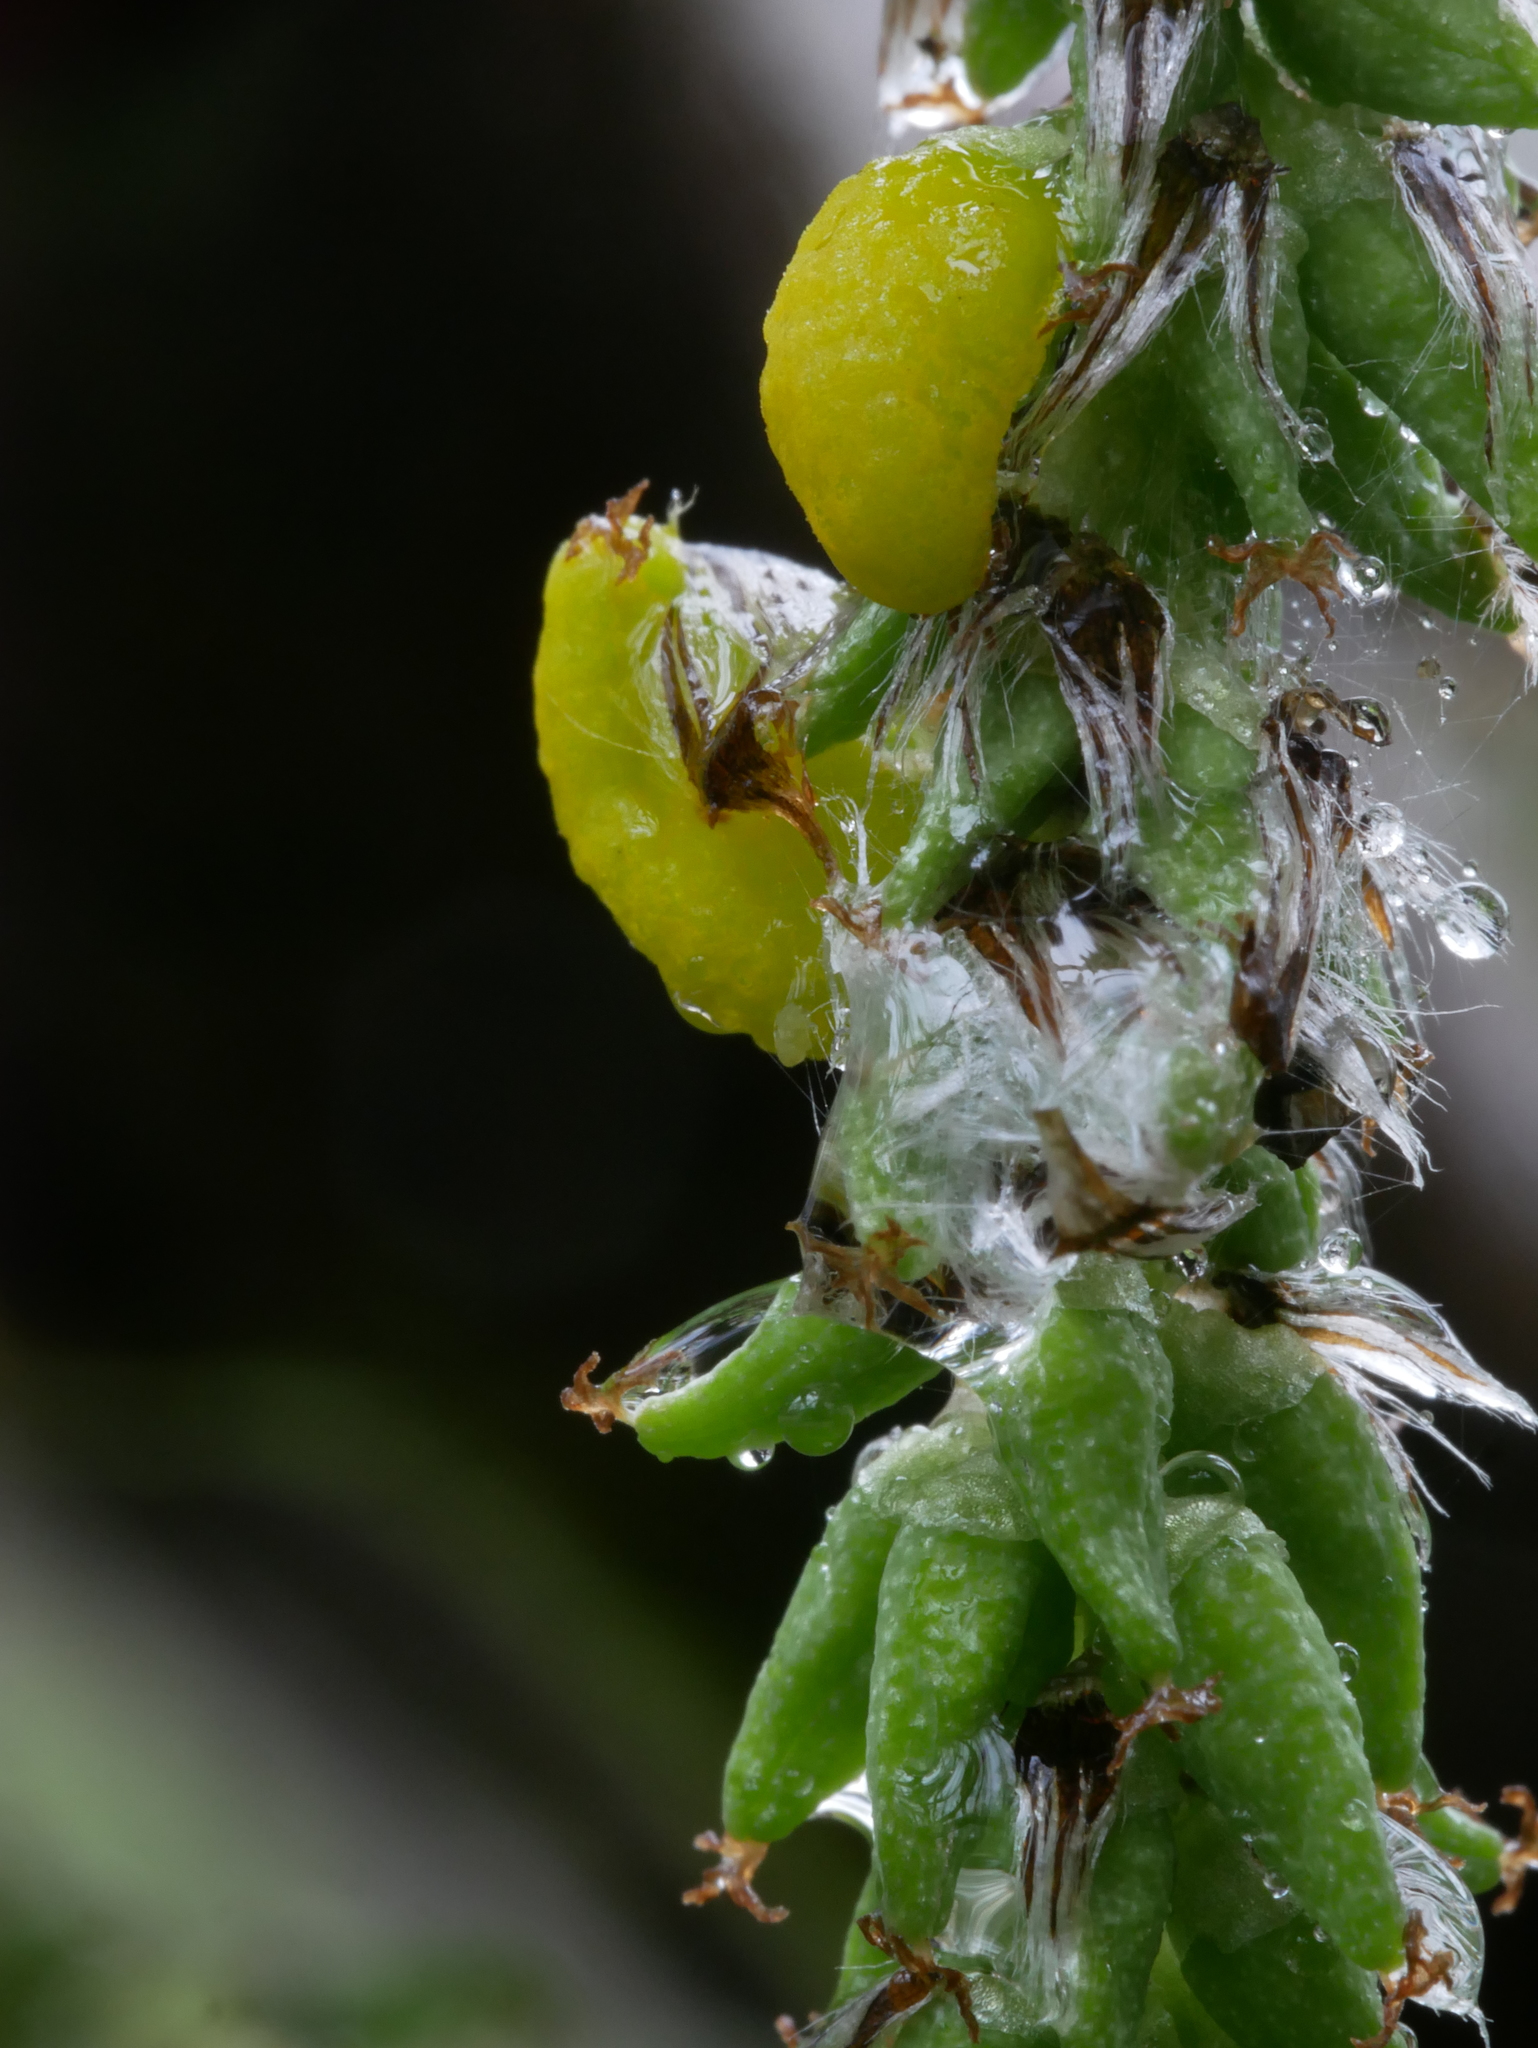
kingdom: Fungi
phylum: Ascomycota
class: Taphrinomycetes
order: Taphrinales
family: Taphrinaceae
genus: Taphrina
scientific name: Taphrina johansonii
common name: Aspen tongue
